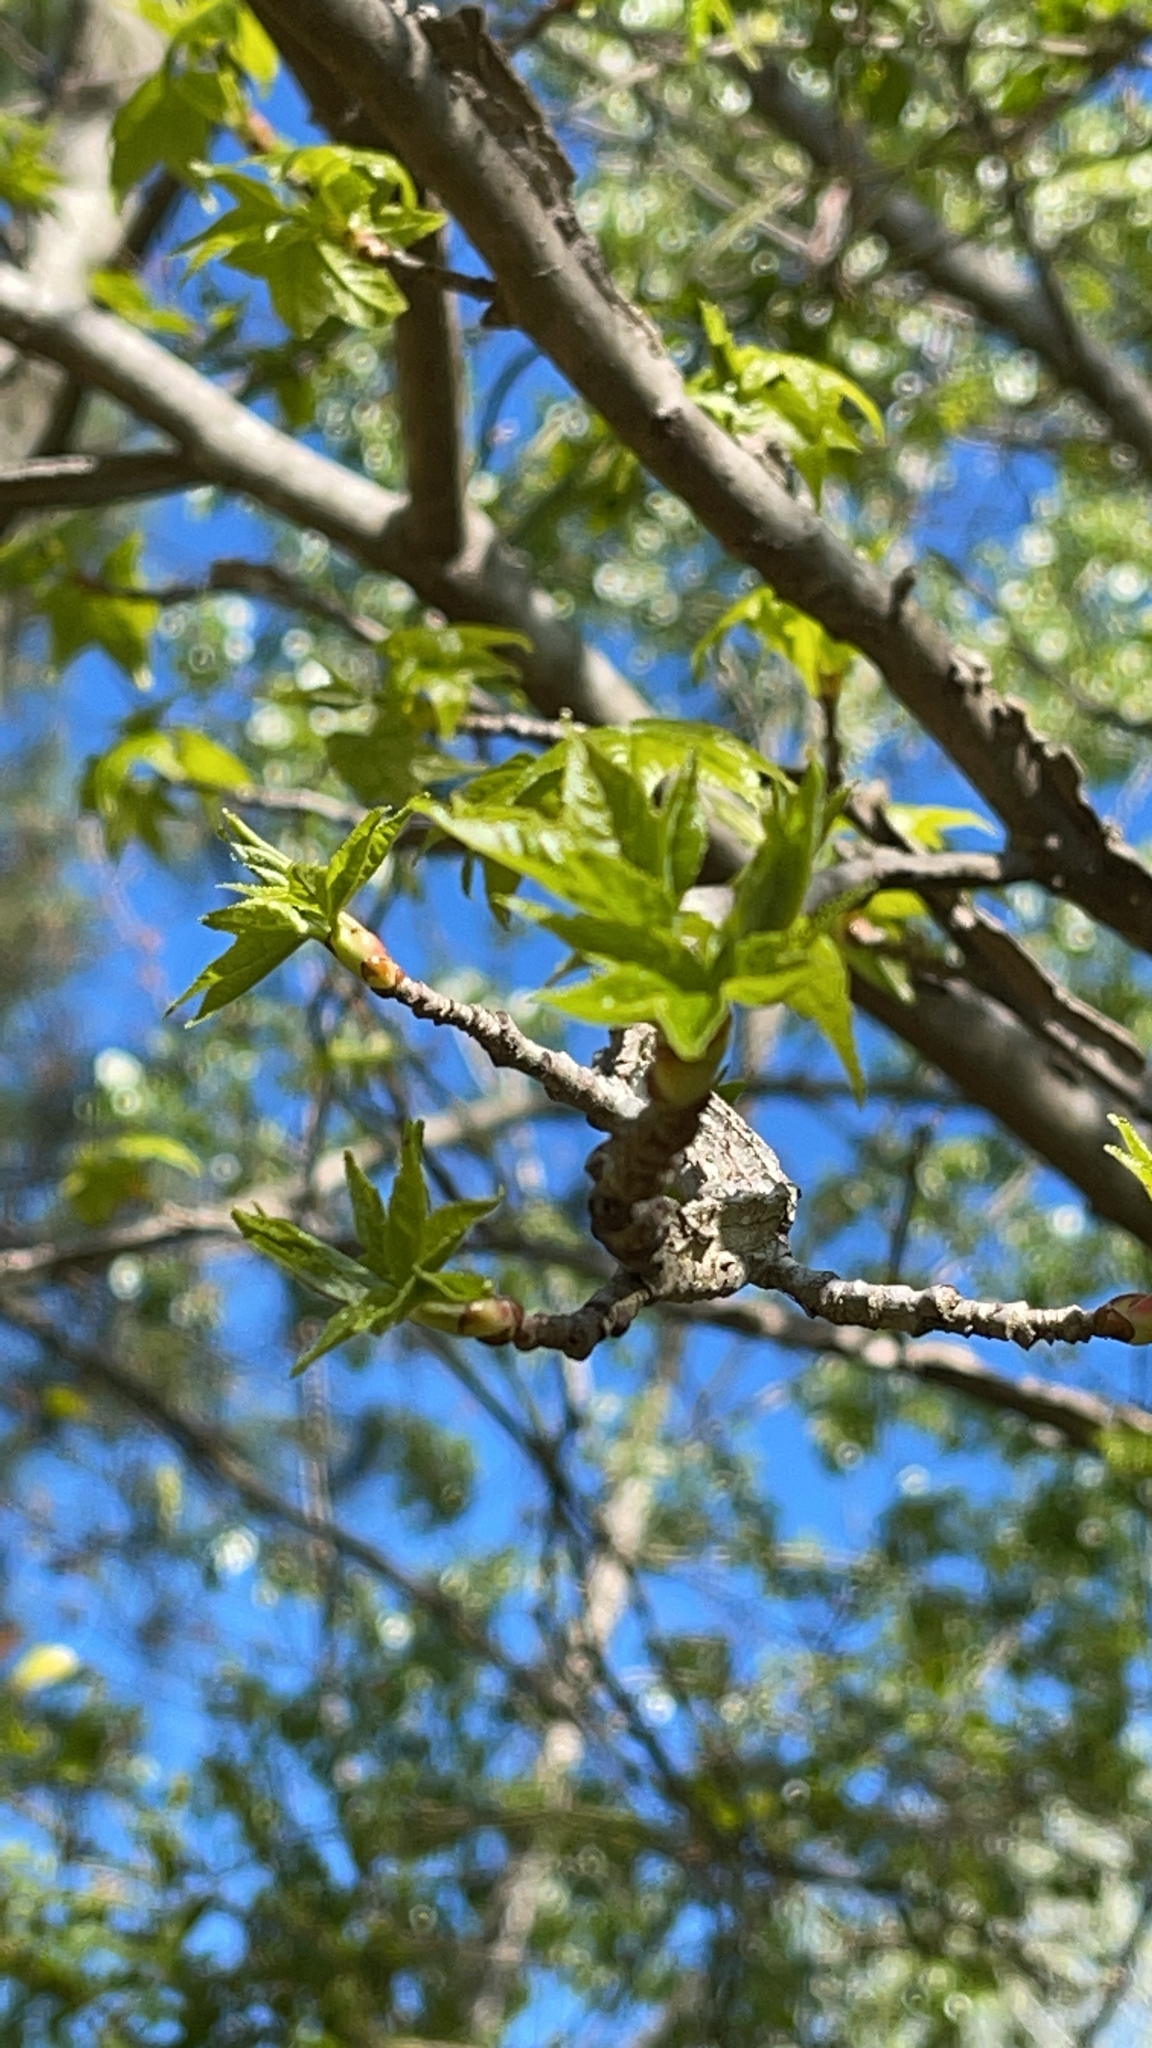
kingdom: Plantae
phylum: Tracheophyta
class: Magnoliopsida
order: Saxifragales
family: Altingiaceae
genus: Liquidambar
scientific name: Liquidambar styraciflua
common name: Sweet gum
